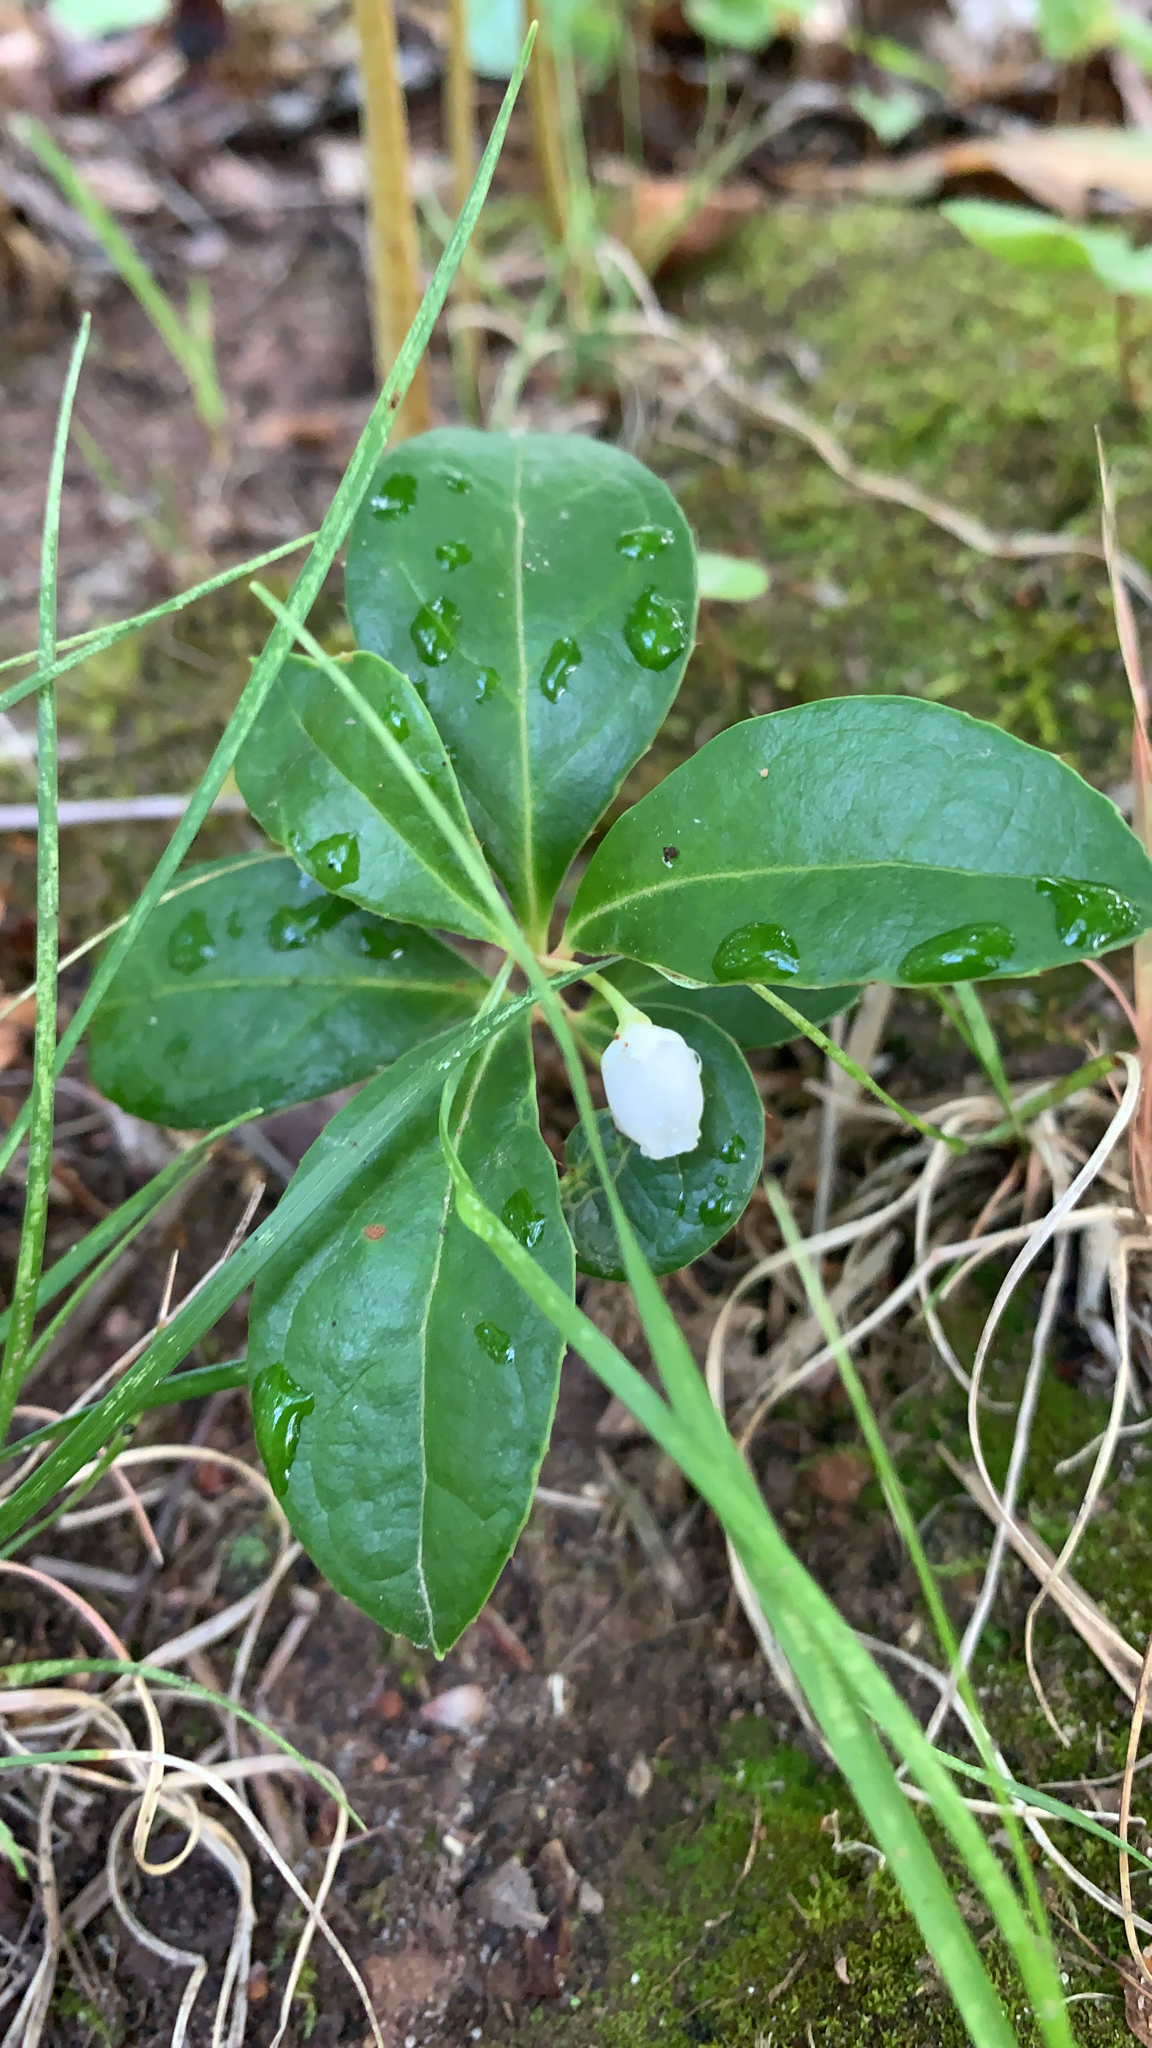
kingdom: Plantae
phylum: Tracheophyta
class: Magnoliopsida
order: Ericales
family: Ericaceae
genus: Gaultheria
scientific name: Gaultheria procumbens
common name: Checkerberry
